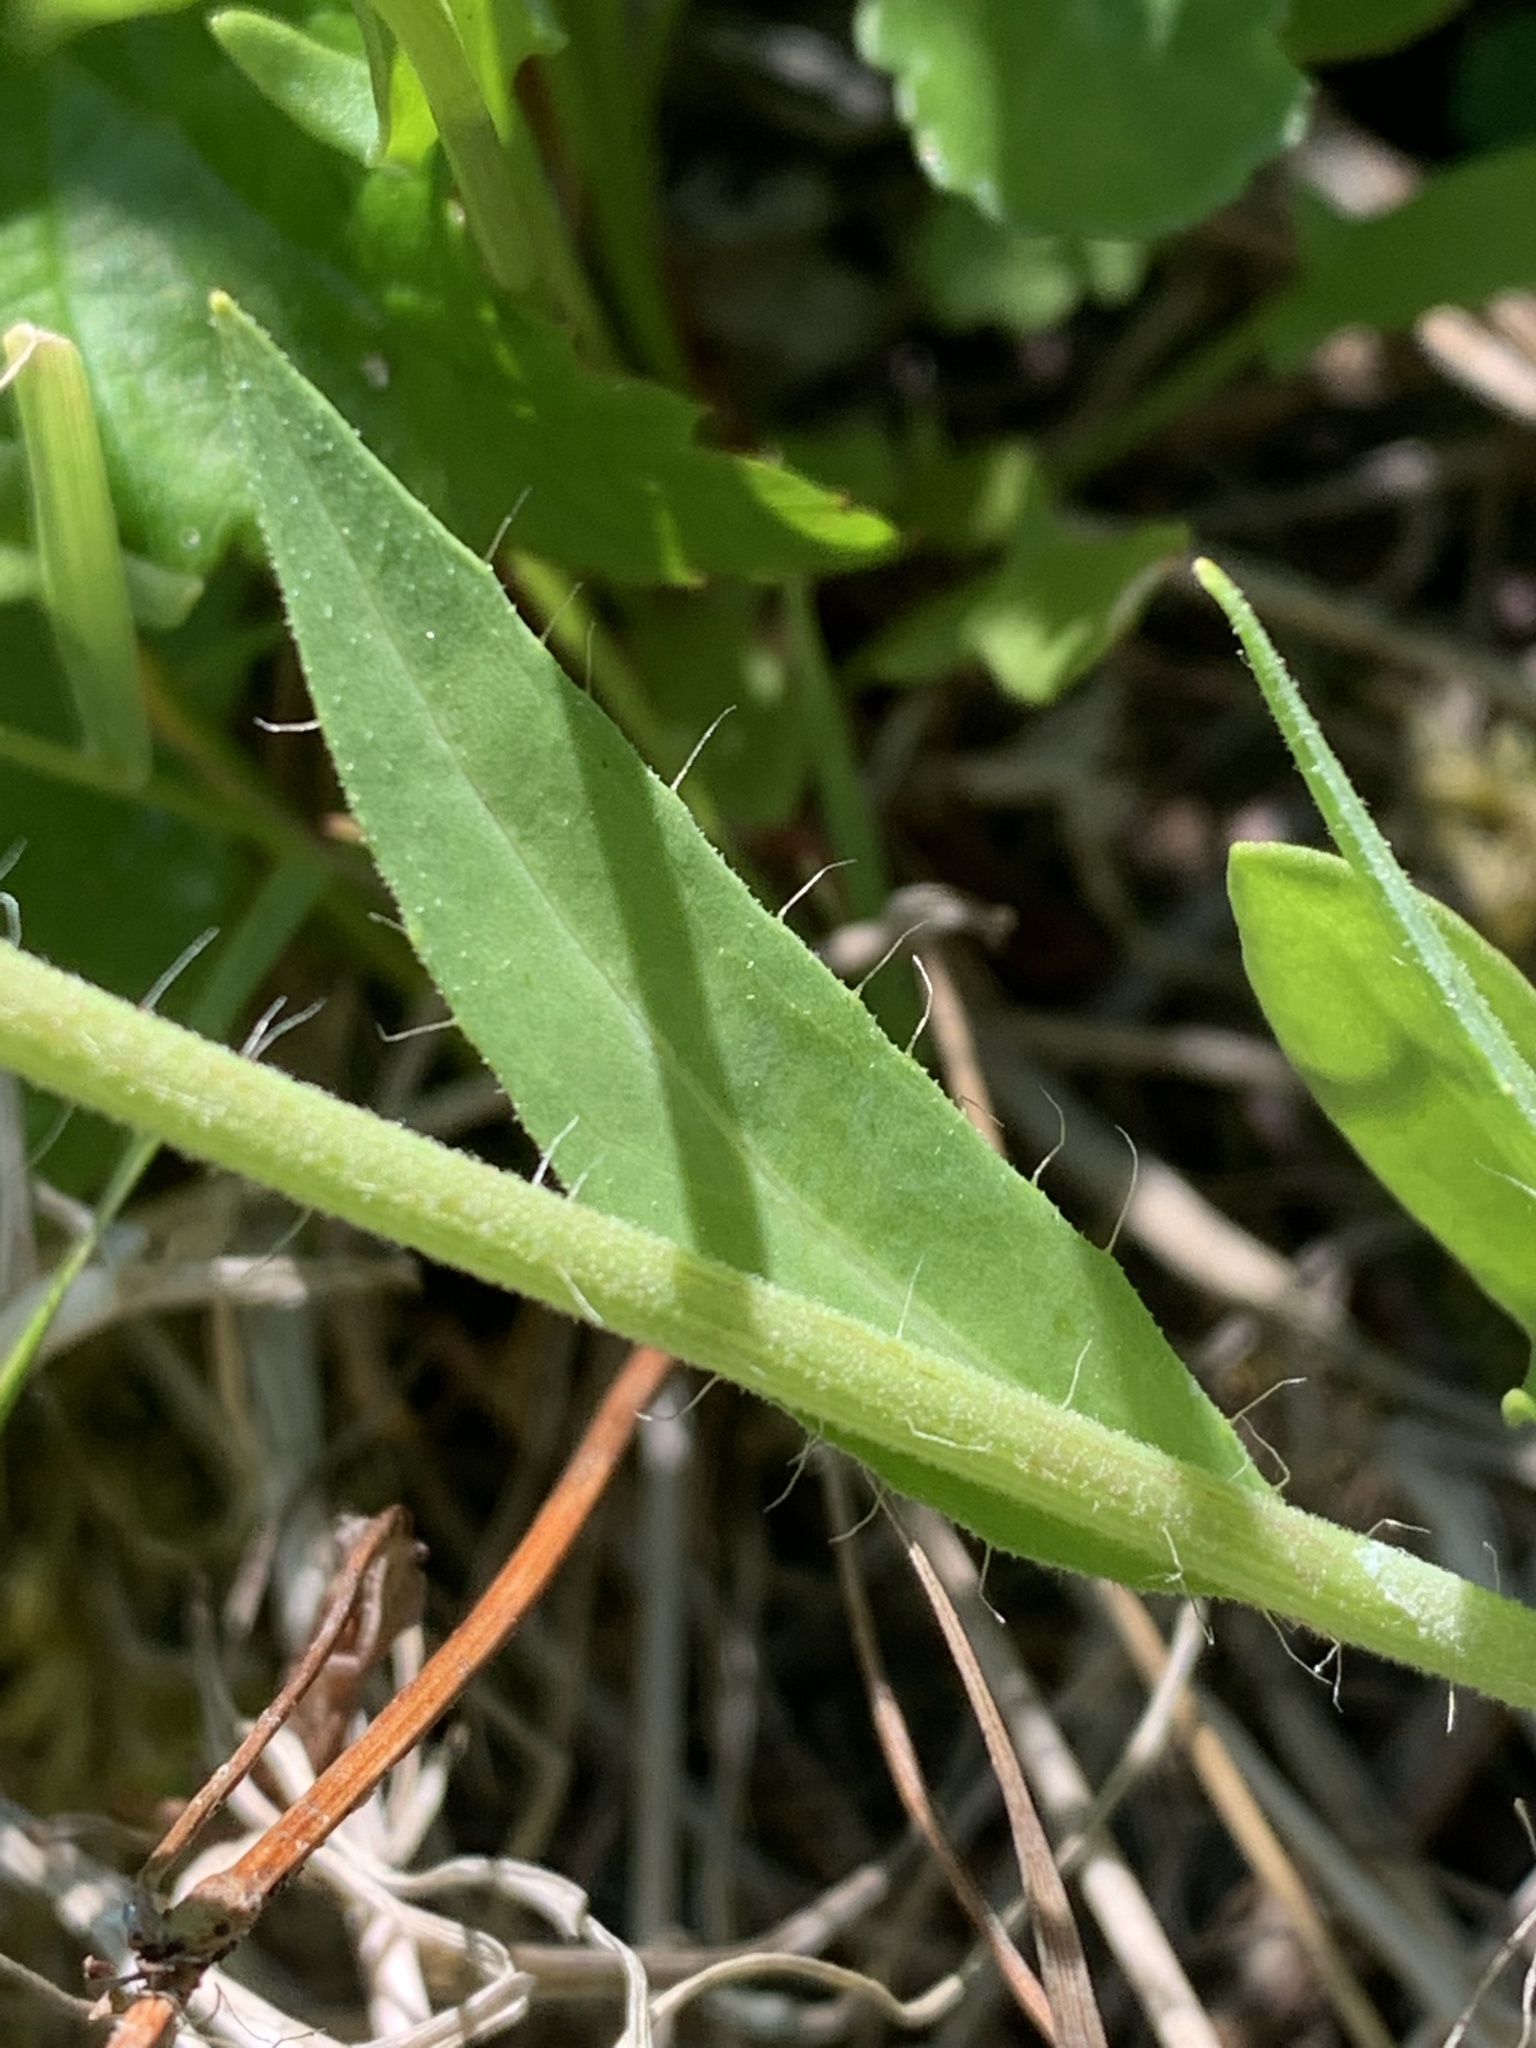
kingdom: Plantae
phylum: Tracheophyta
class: Magnoliopsida
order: Asterales
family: Asteraceae
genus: Pilosella
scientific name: Pilosella floribunda
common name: Glaucous hawkweed
